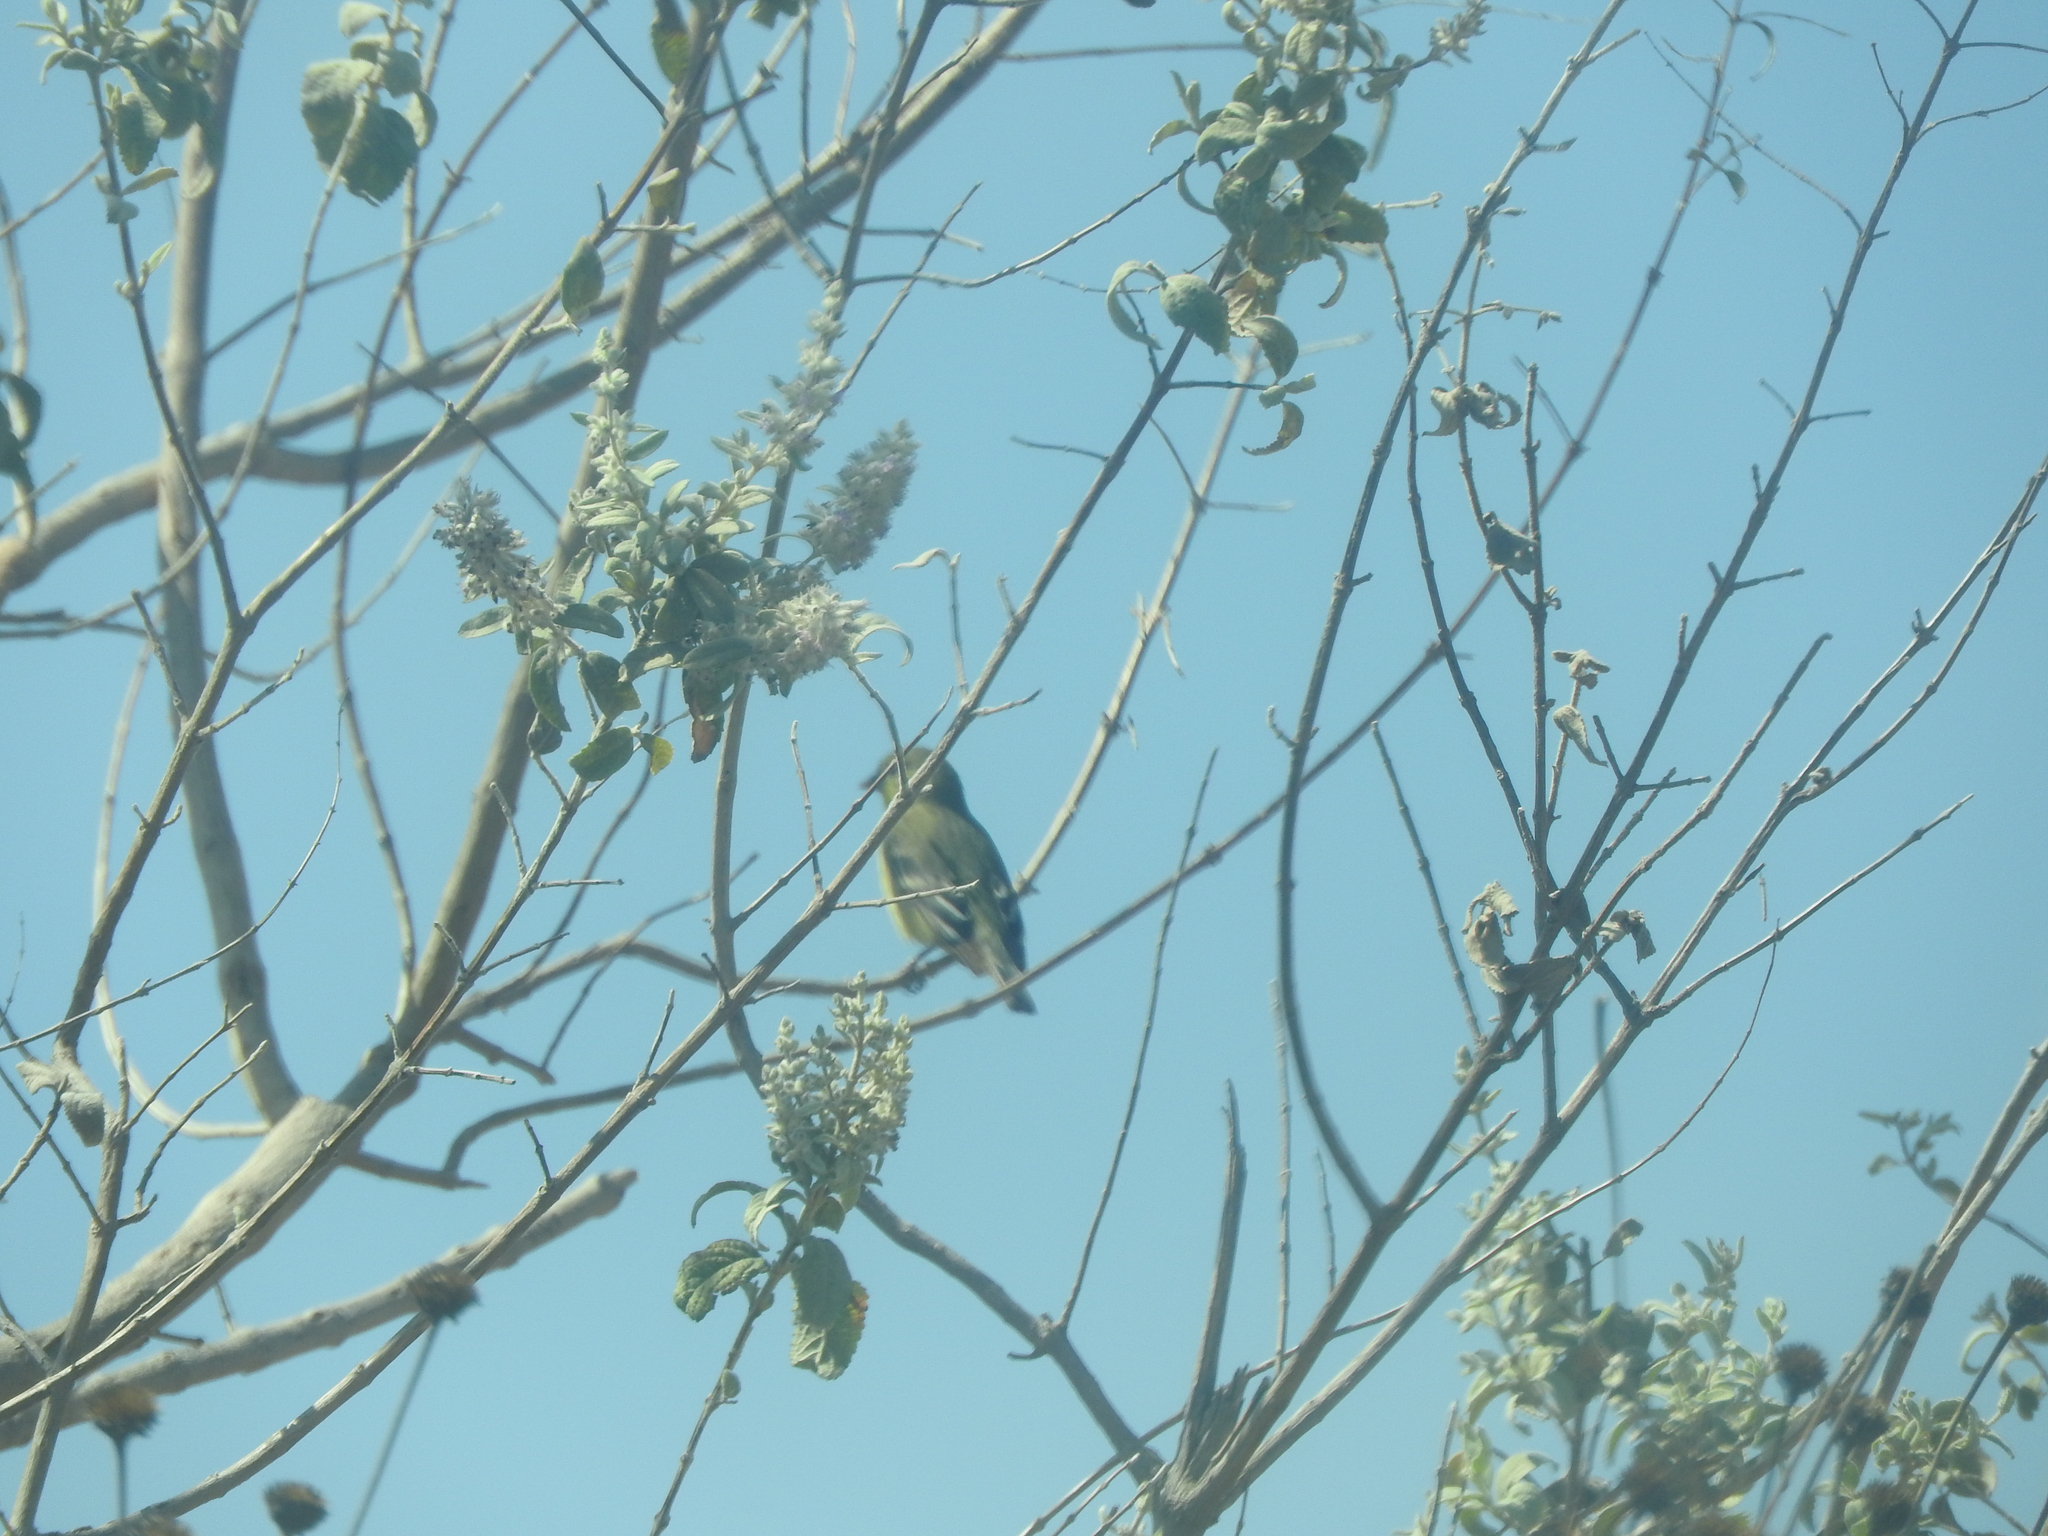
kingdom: Animalia
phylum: Chordata
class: Aves
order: Passeriformes
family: Fringillidae
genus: Spinus
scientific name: Spinus psaltria
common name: Lesser goldfinch
